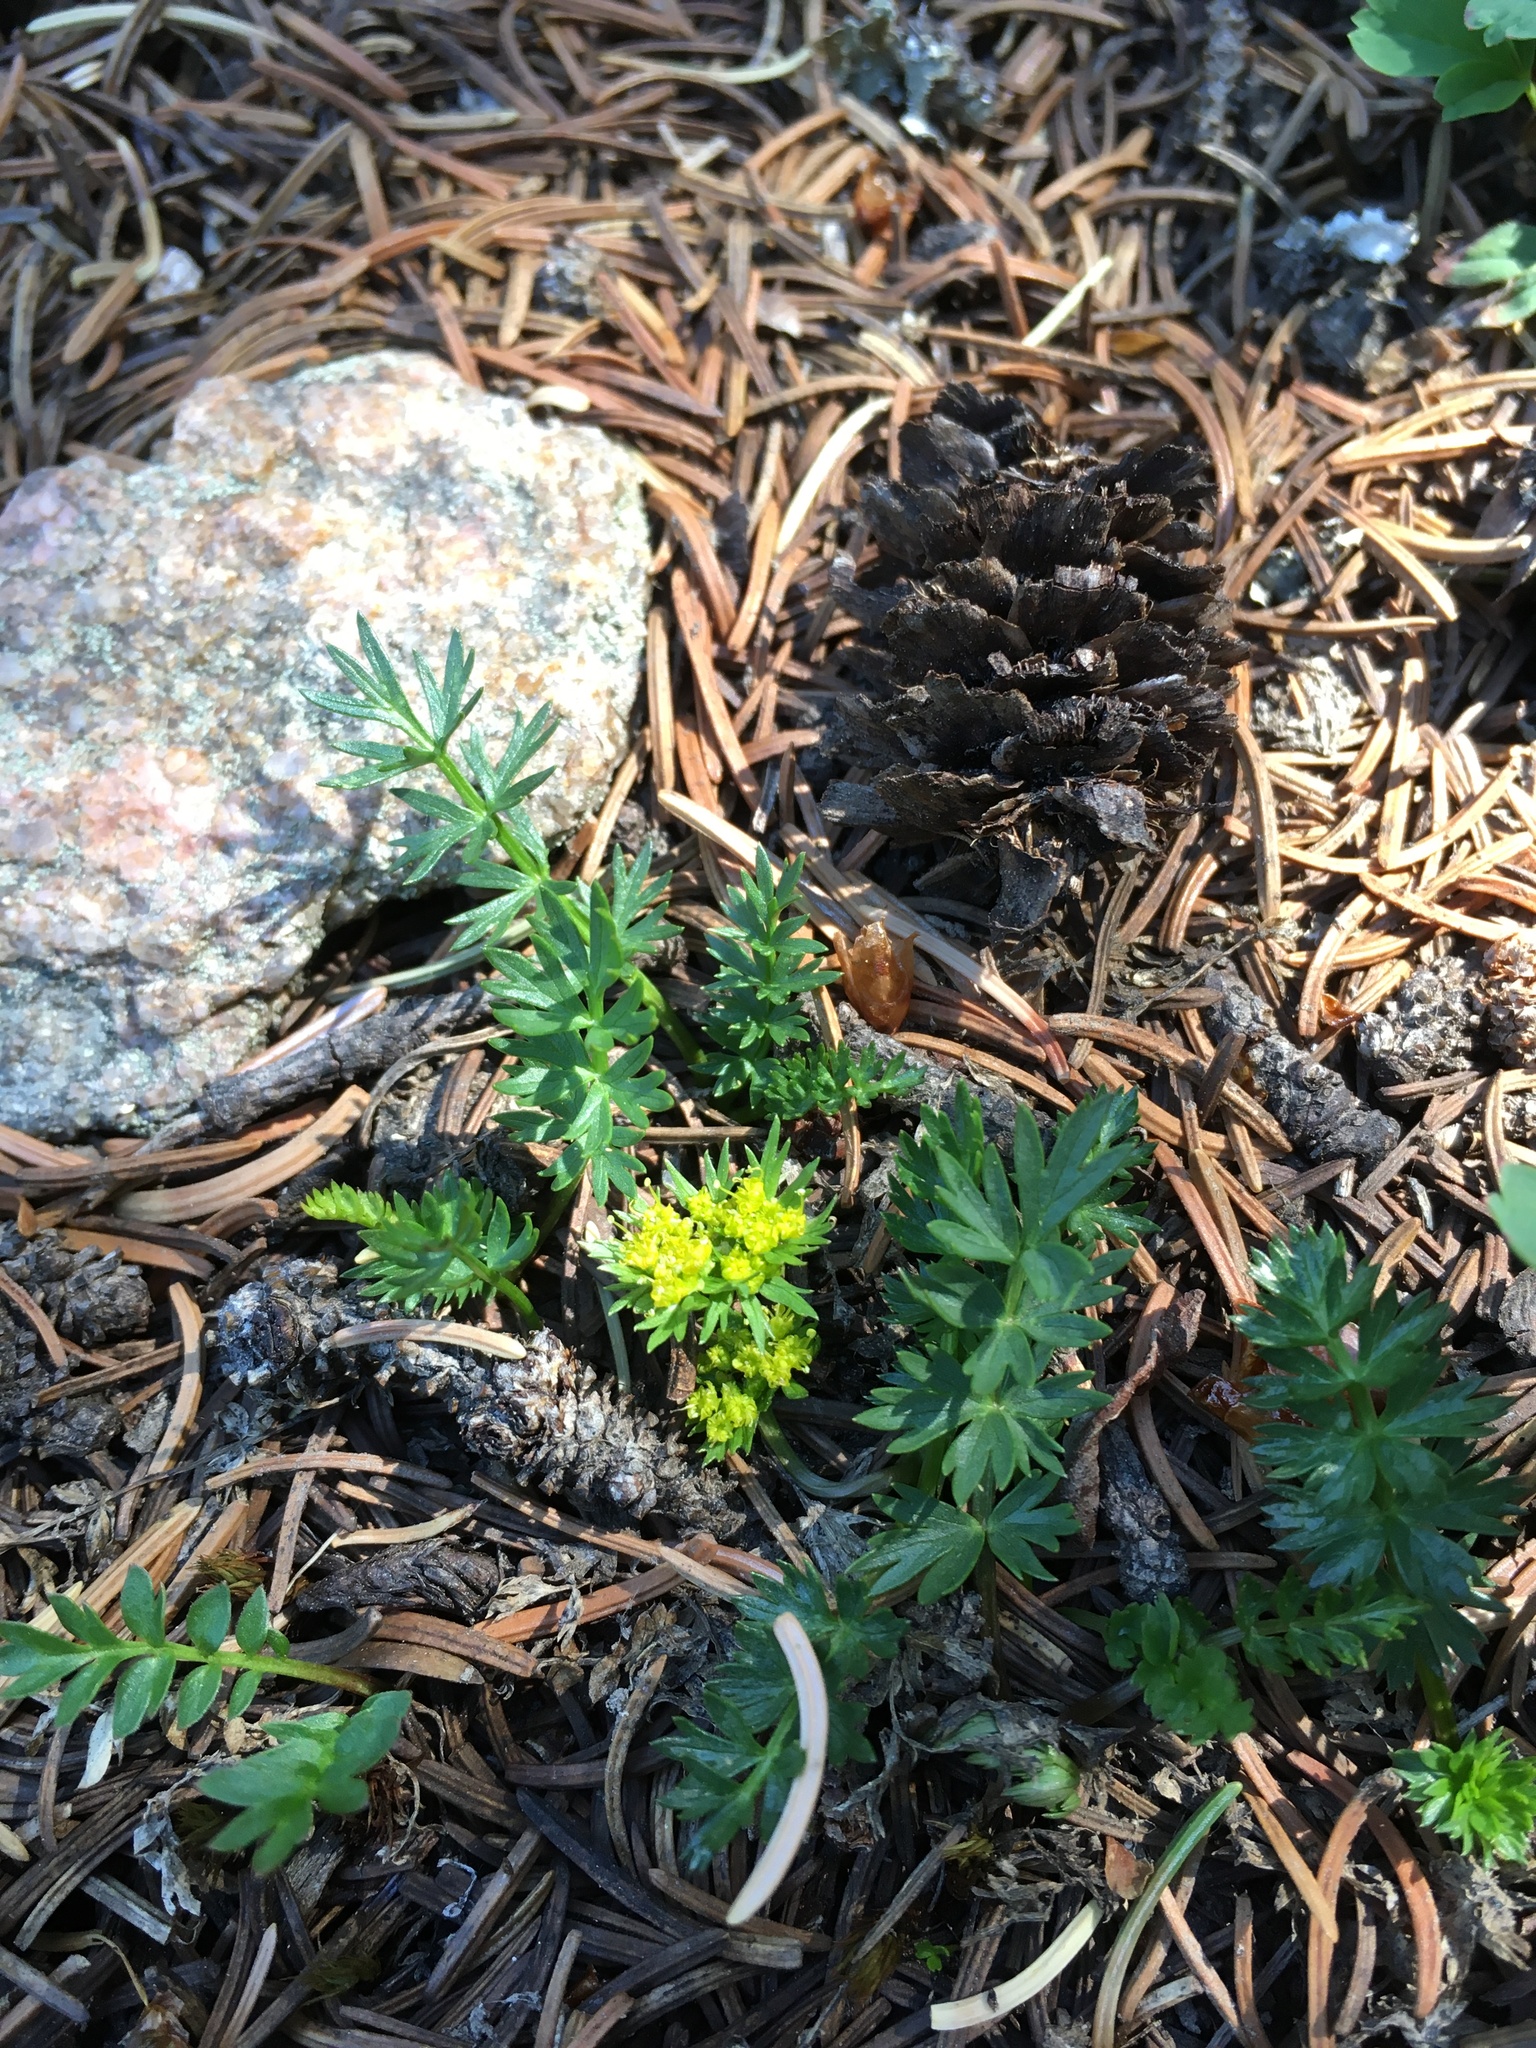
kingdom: Plantae
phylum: Tracheophyta
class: Magnoliopsida
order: Apiales
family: Apiaceae
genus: Podistera
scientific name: Podistera eastwoodiae
